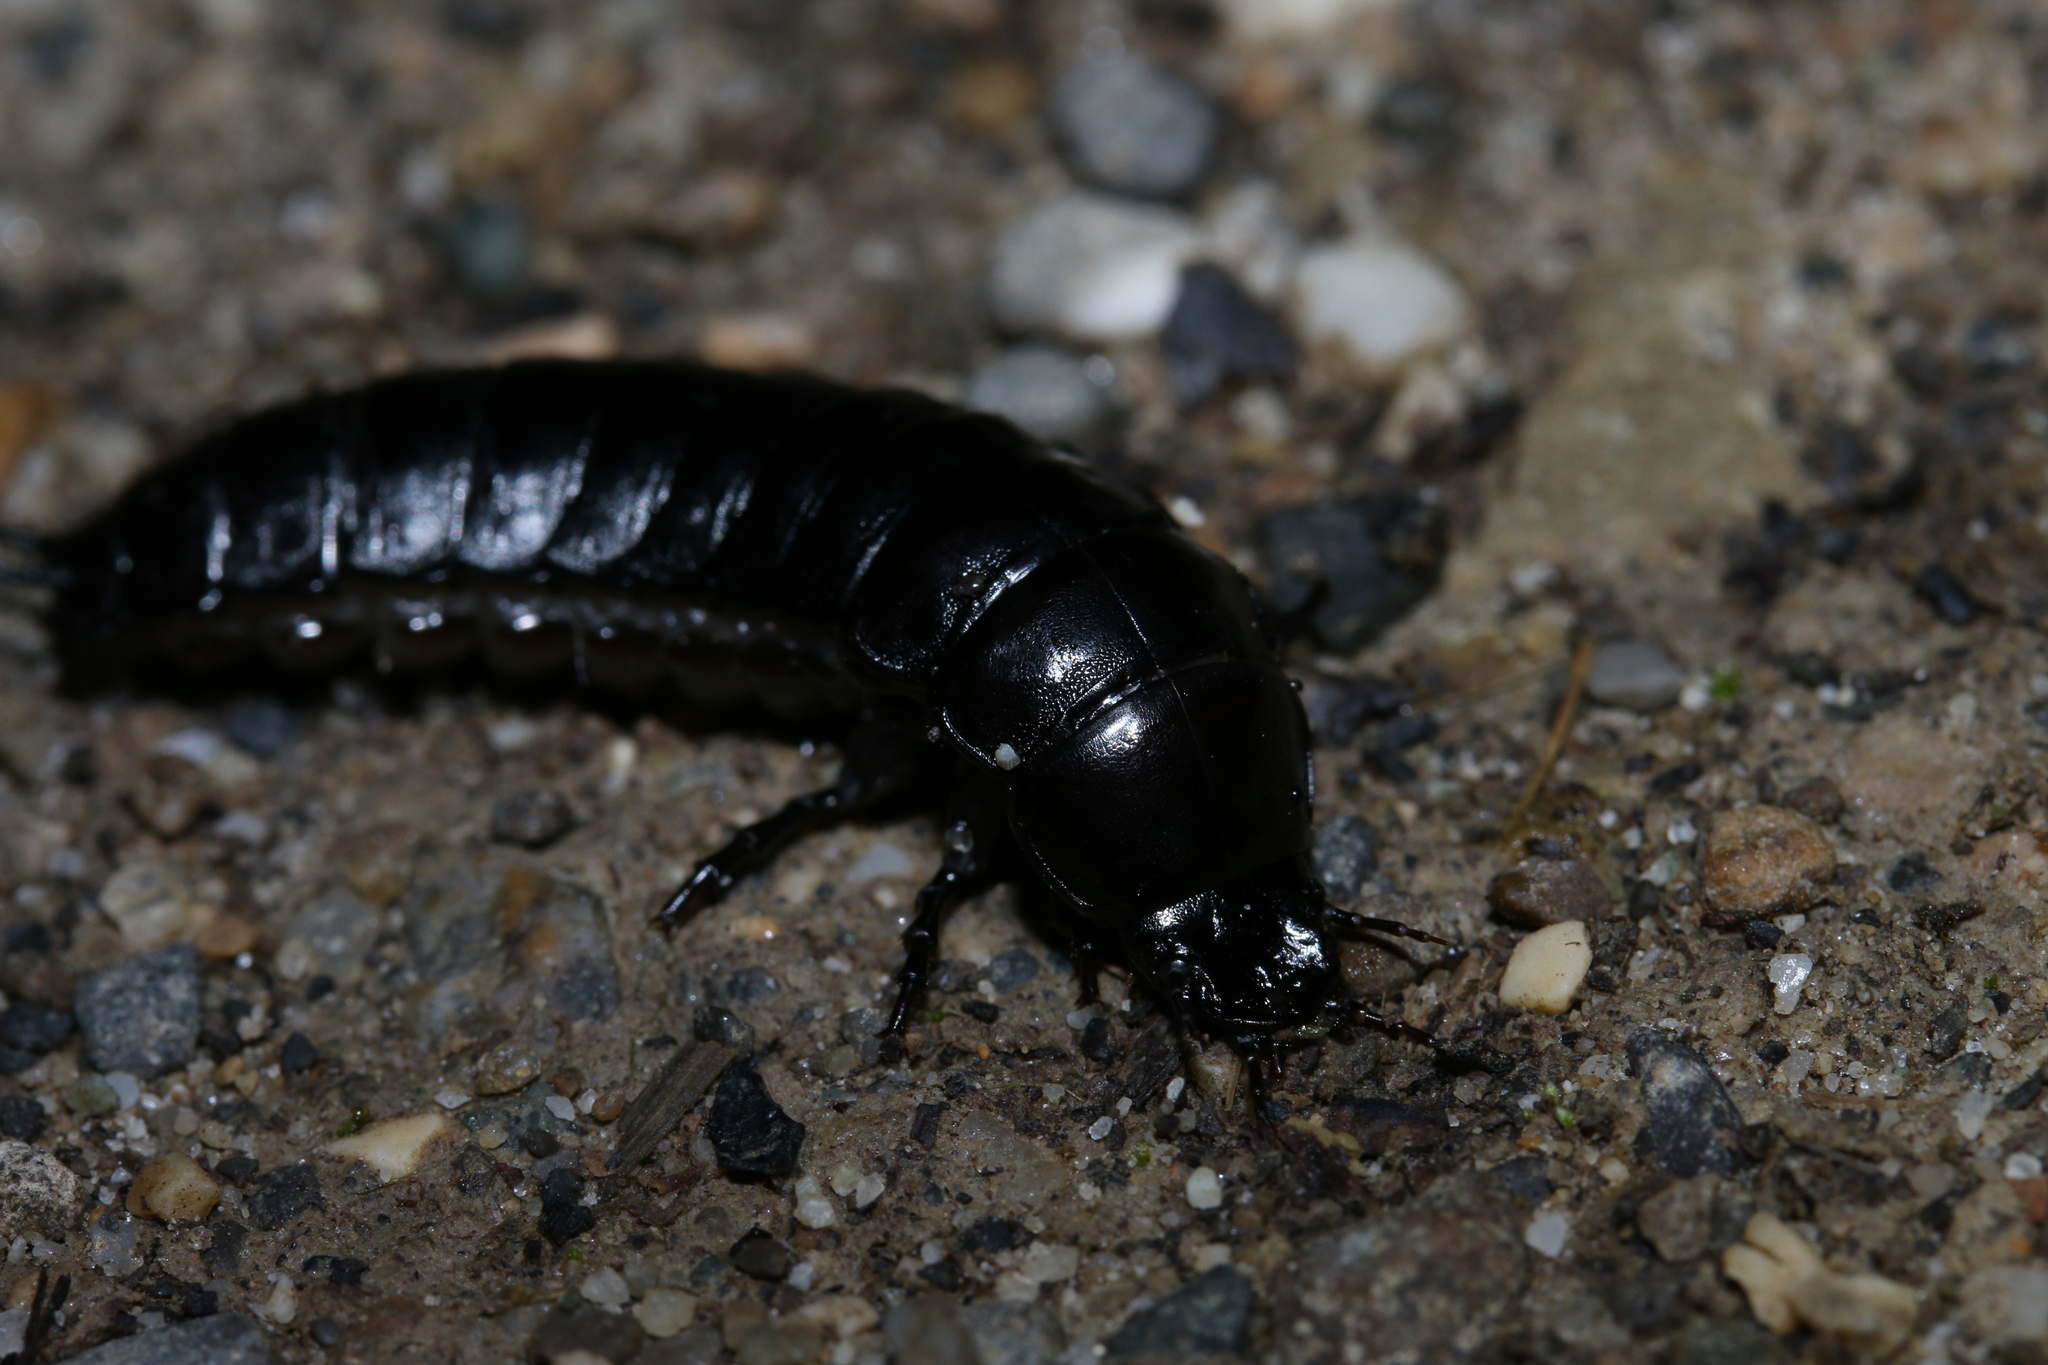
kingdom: Animalia
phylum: Arthropoda
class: Insecta
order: Coleoptera
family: Carabidae
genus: Carabus
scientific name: Carabus
